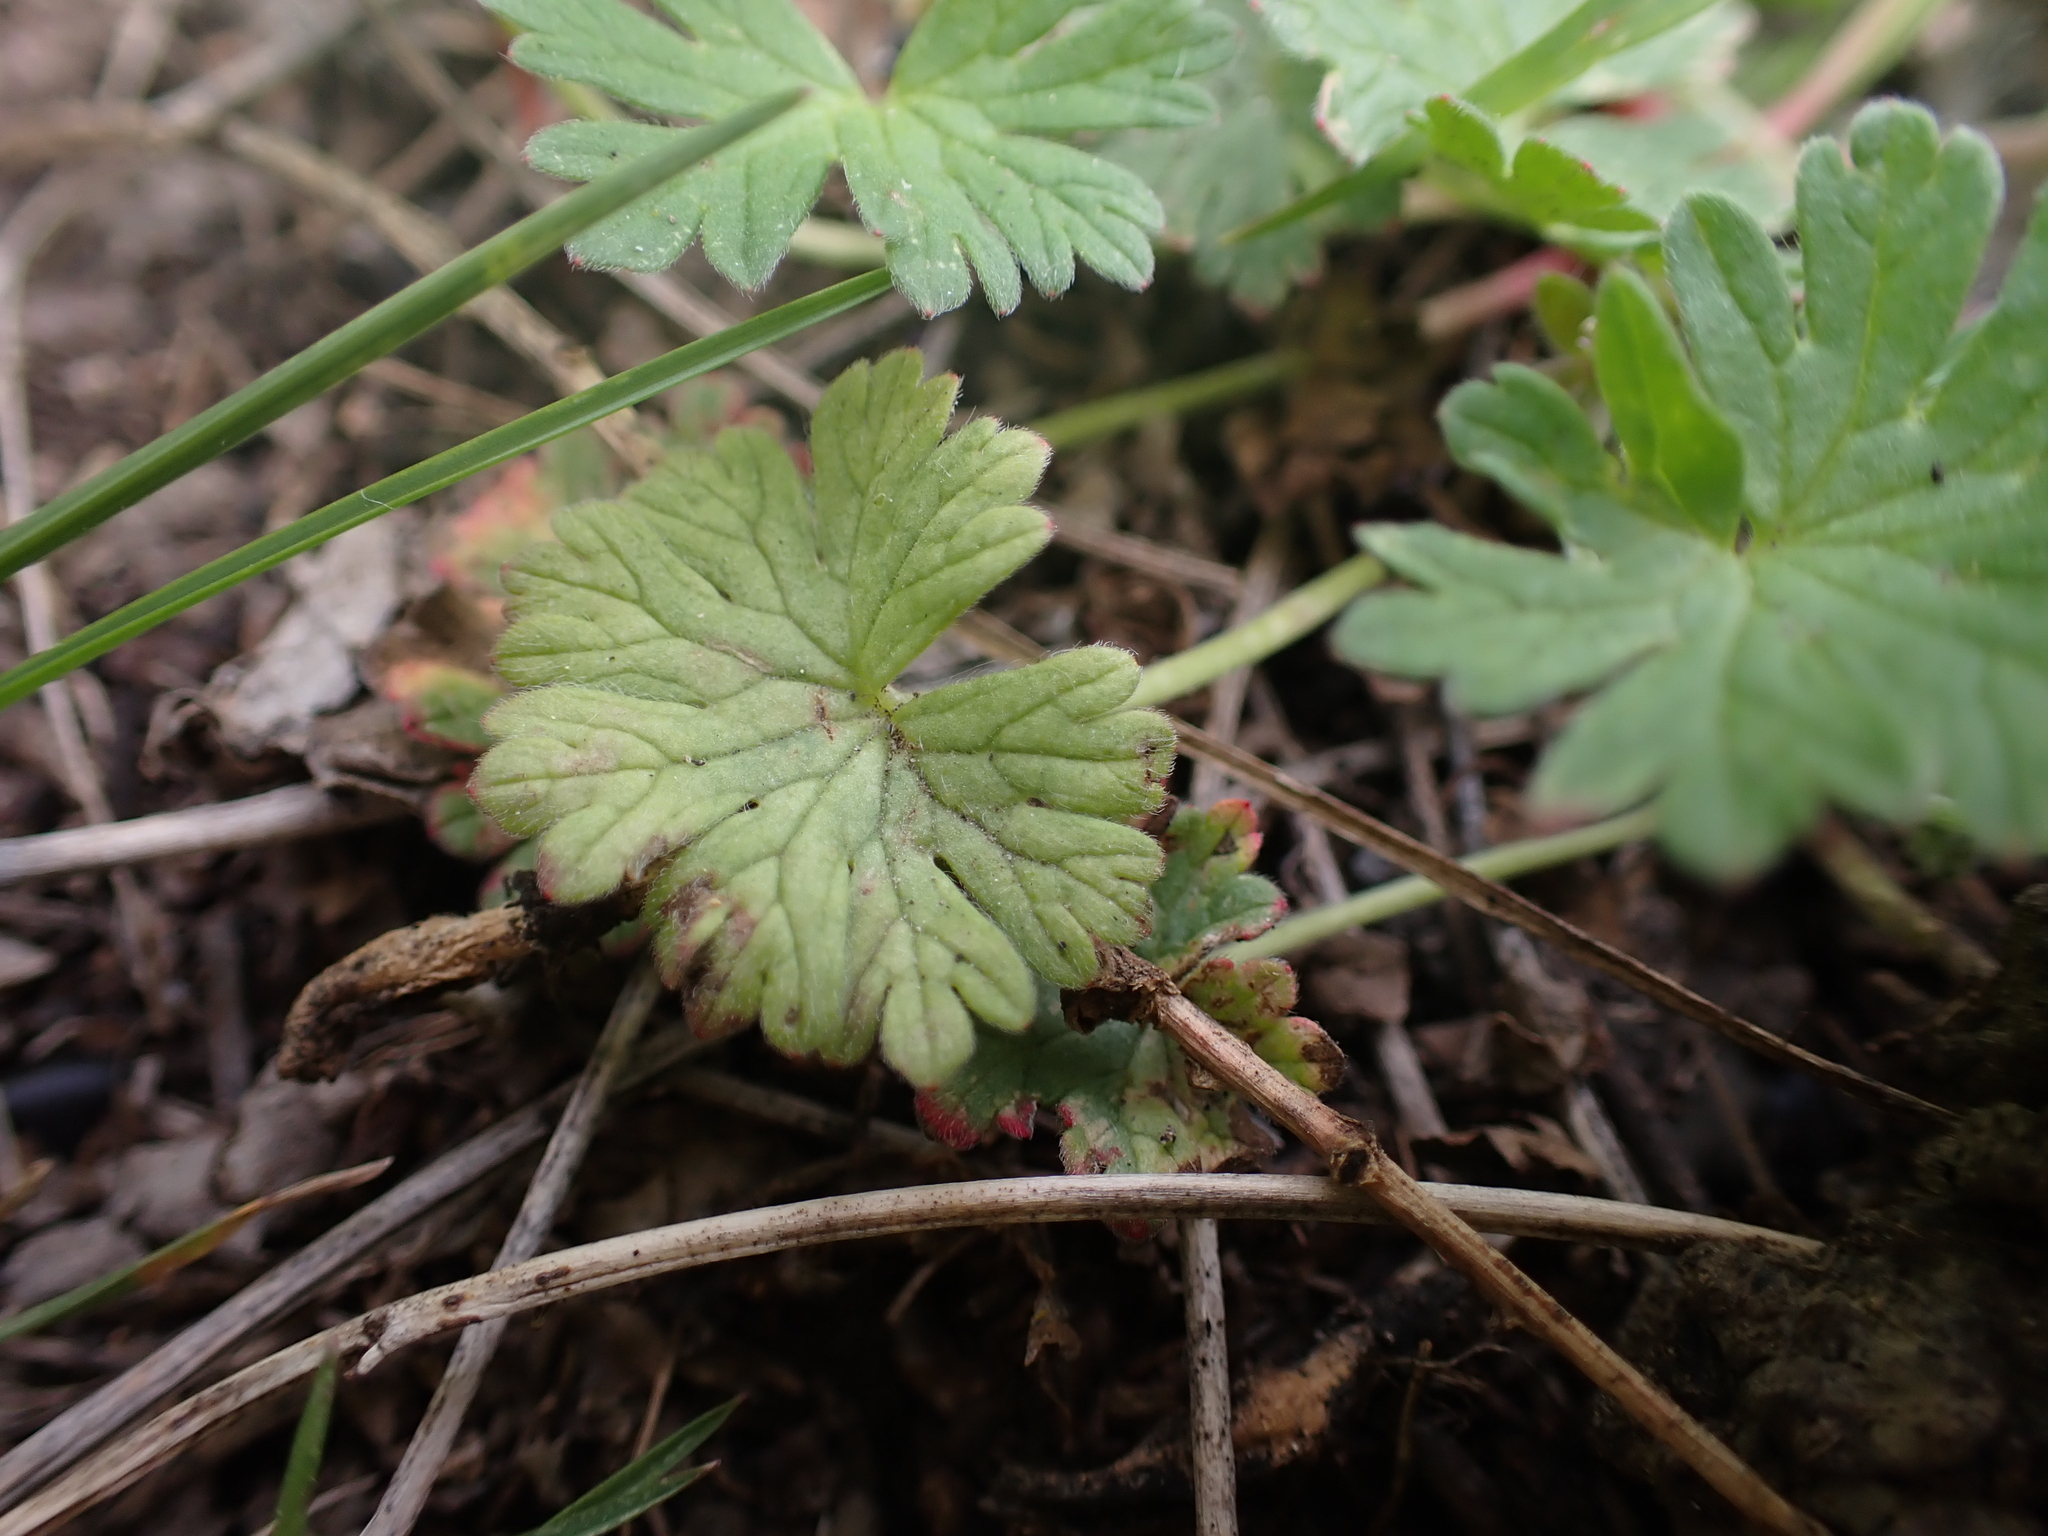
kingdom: Chromista
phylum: Oomycota
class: Peronosporea
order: Peronosporales
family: Peronosporaceae
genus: Peronospora
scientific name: Peronospora conglomerata
